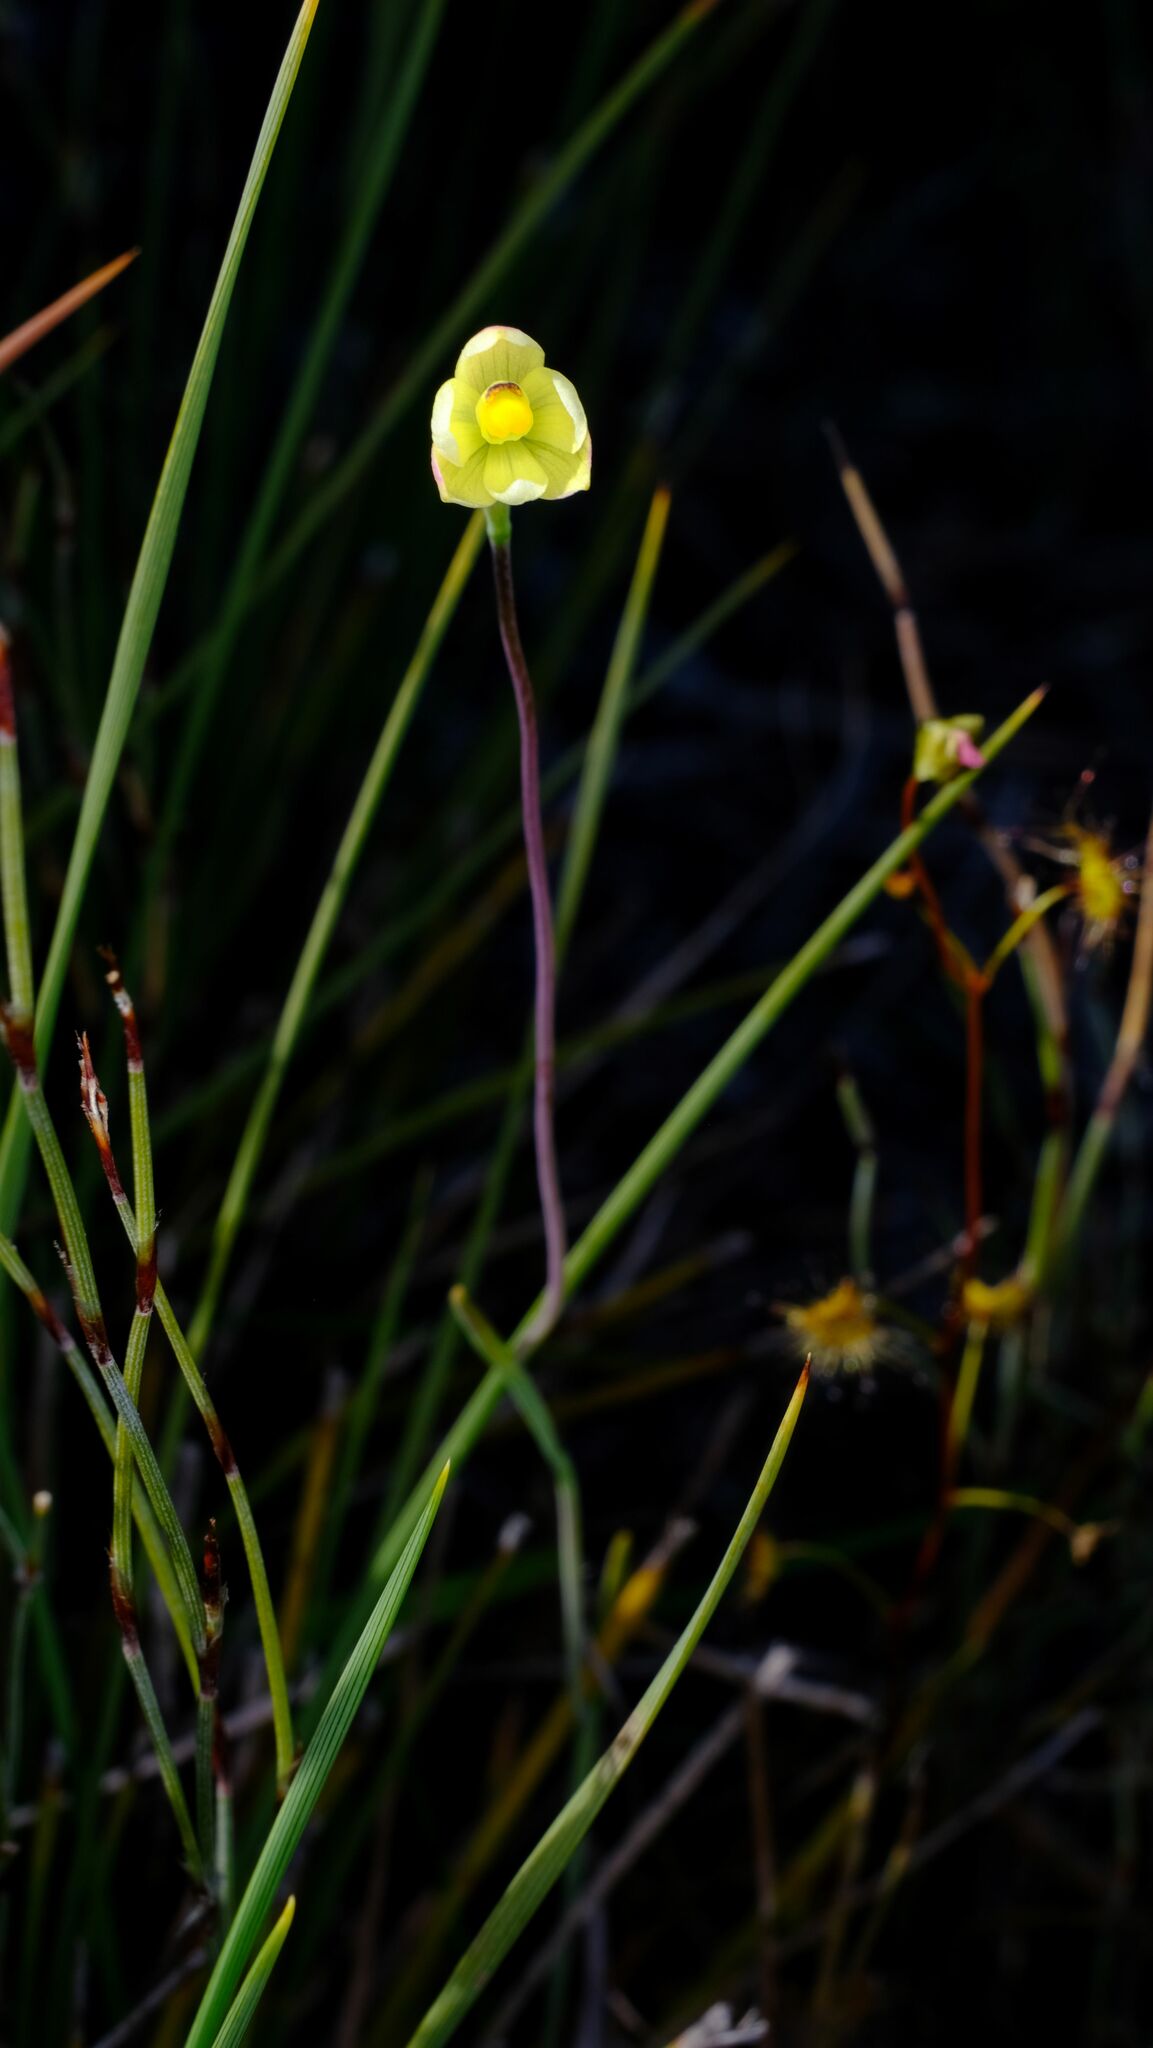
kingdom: Plantae
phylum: Tracheophyta
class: Liliopsida
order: Asparagales
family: Orchidaceae
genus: Thelymitra
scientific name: Thelymitra flexuosa
